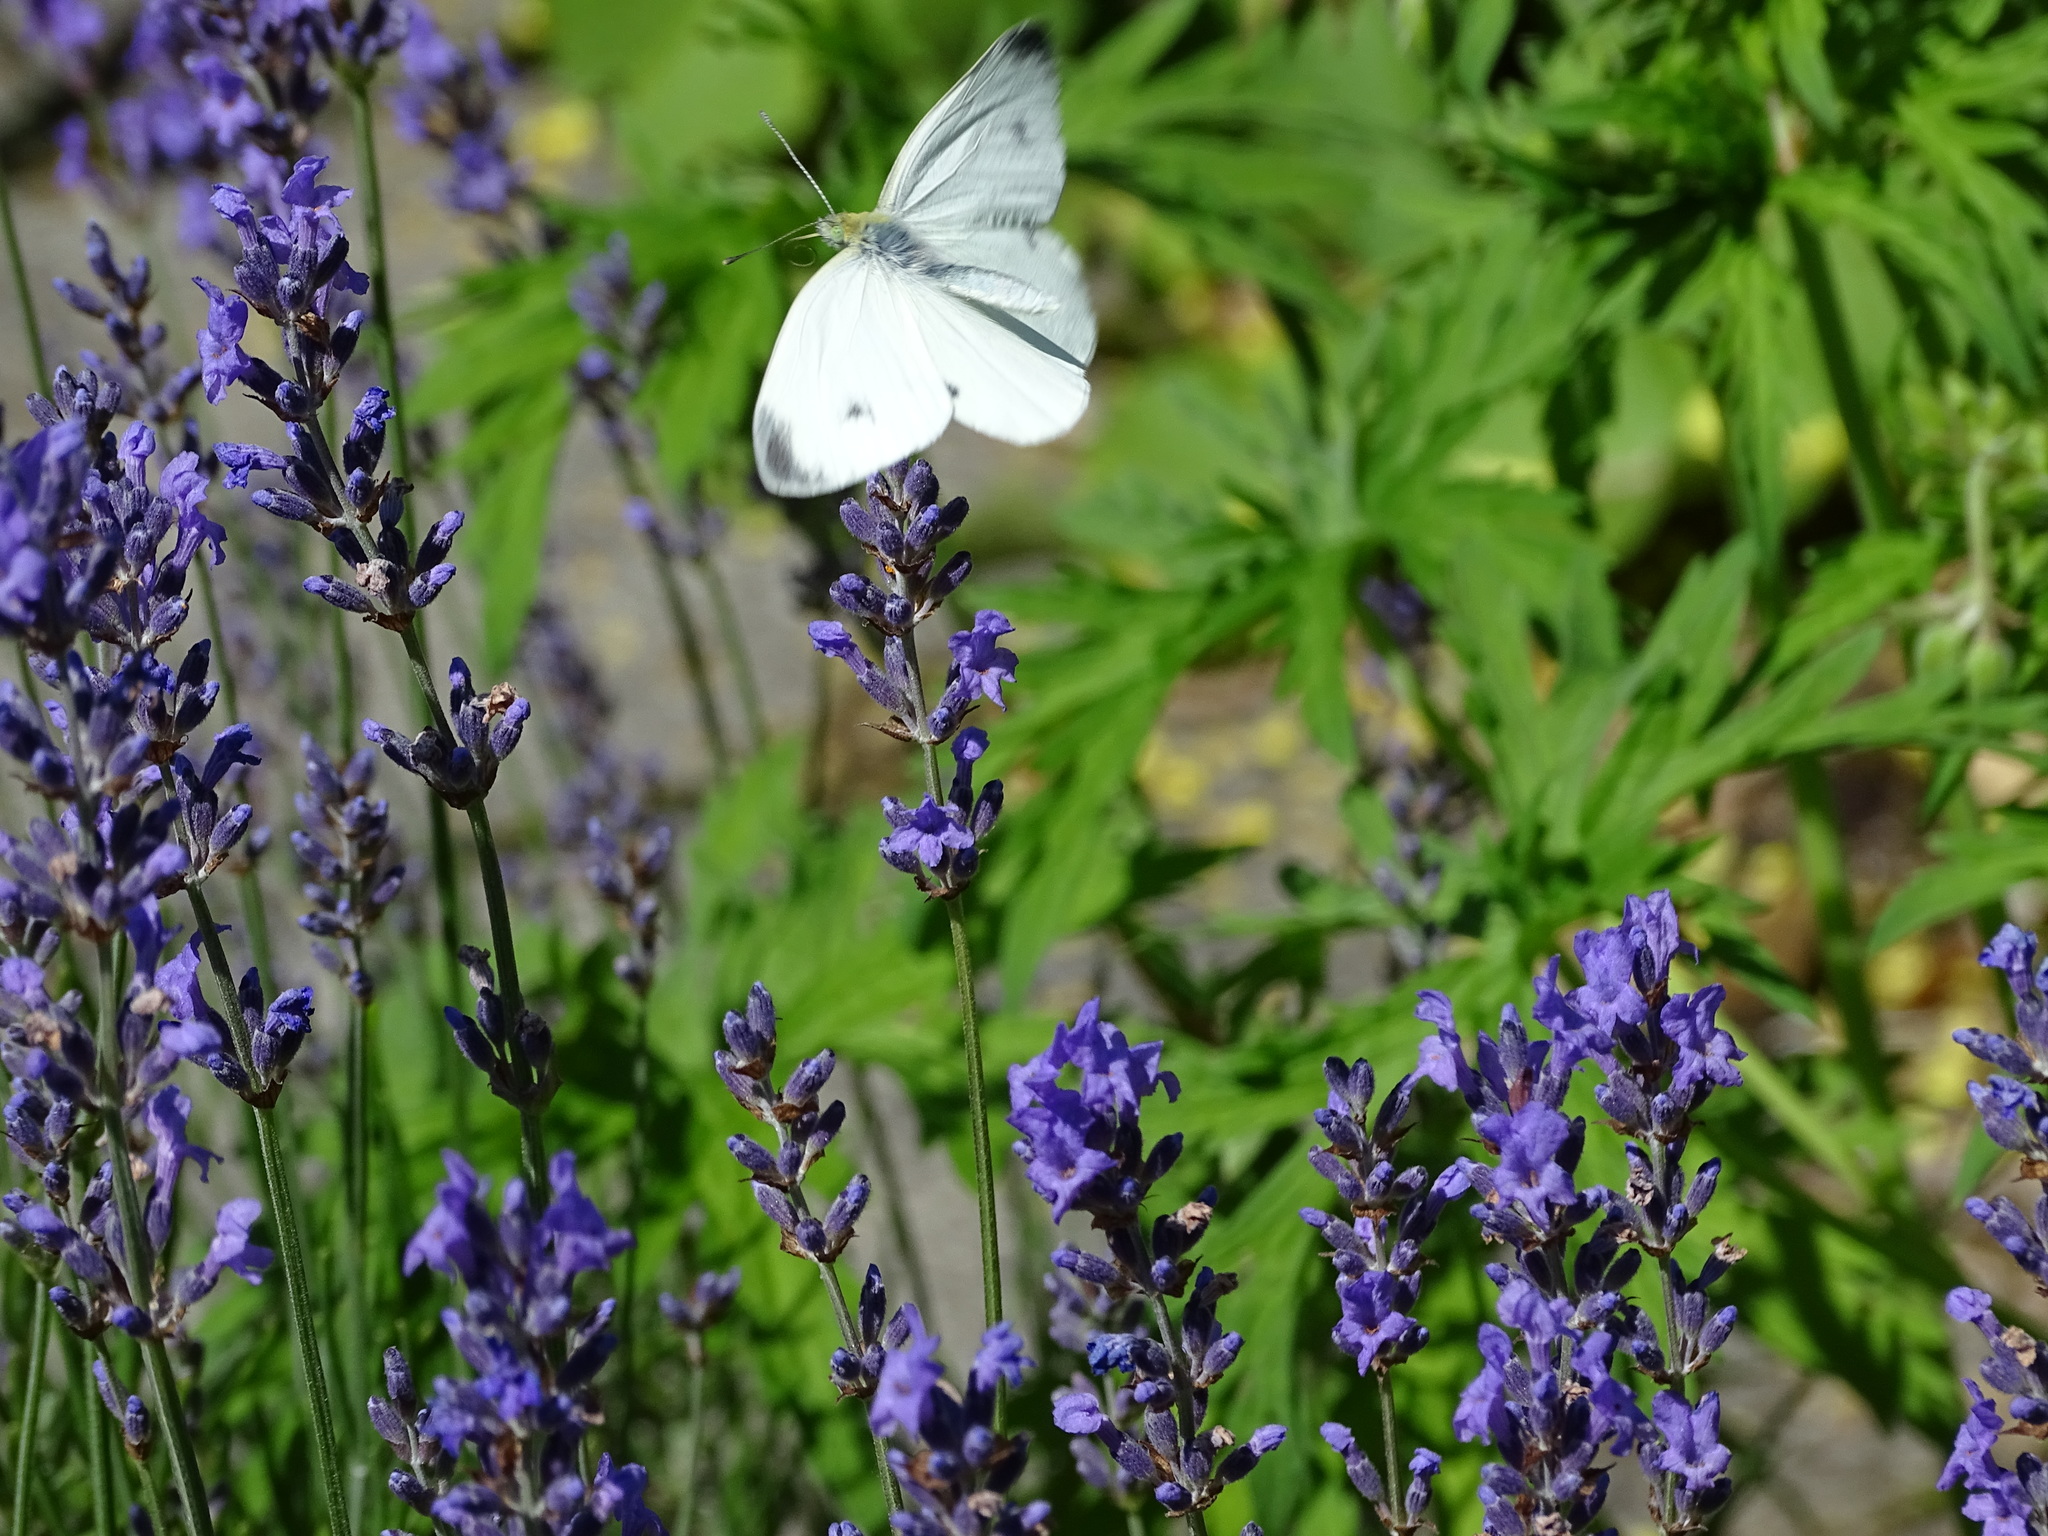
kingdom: Animalia
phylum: Arthropoda
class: Insecta
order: Lepidoptera
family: Pieridae
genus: Pieris
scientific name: Pieris rapae
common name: Small white
